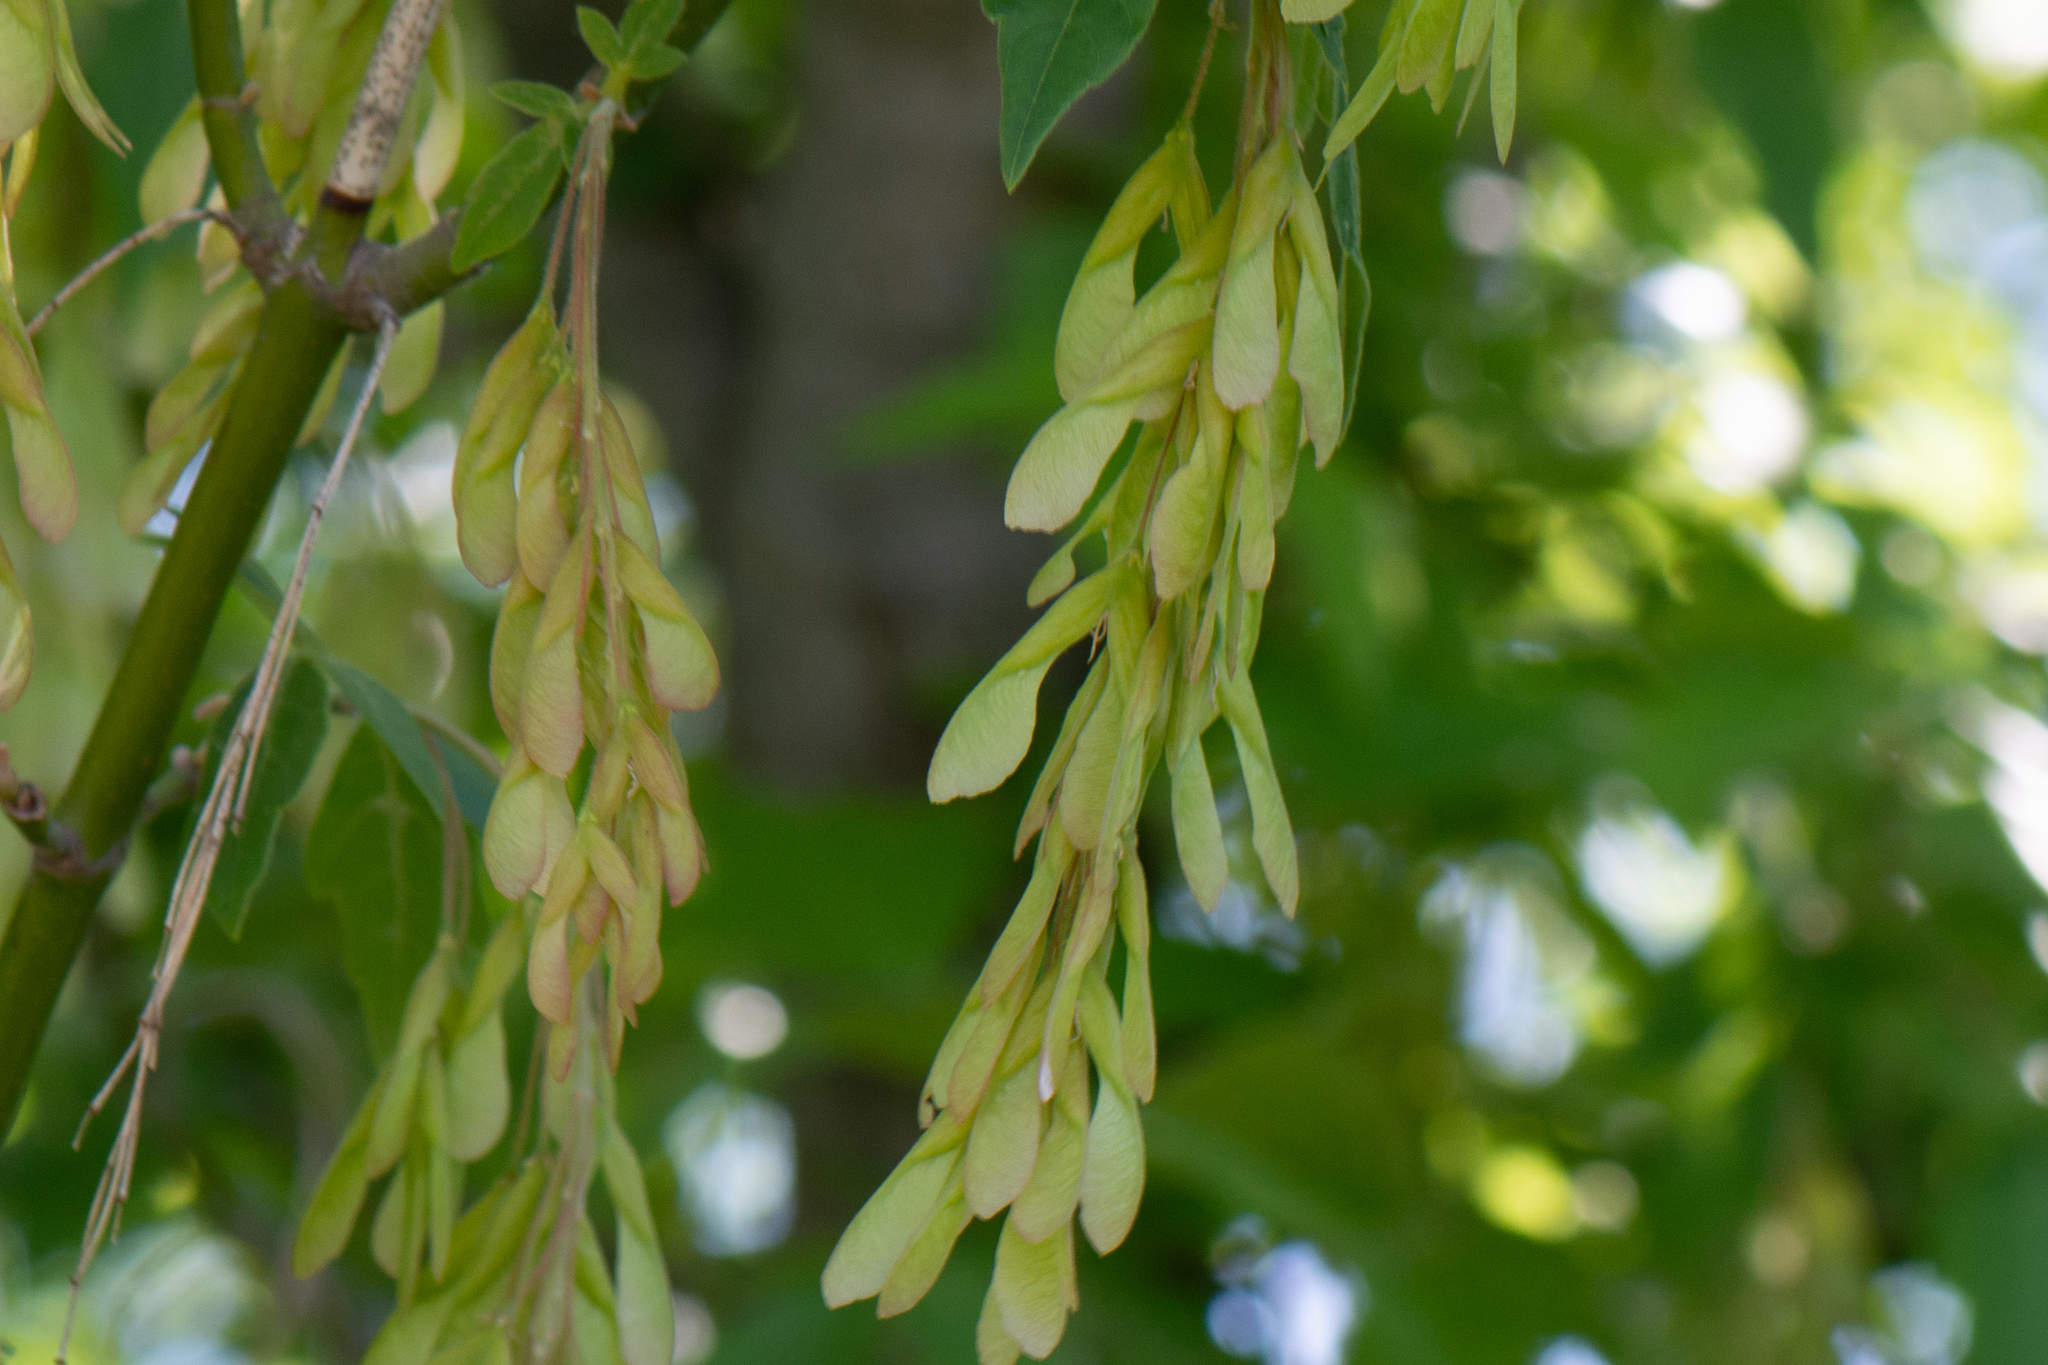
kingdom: Plantae
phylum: Tracheophyta
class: Magnoliopsida
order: Sapindales
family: Sapindaceae
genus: Acer
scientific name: Acer negundo
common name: Ashleaf maple
